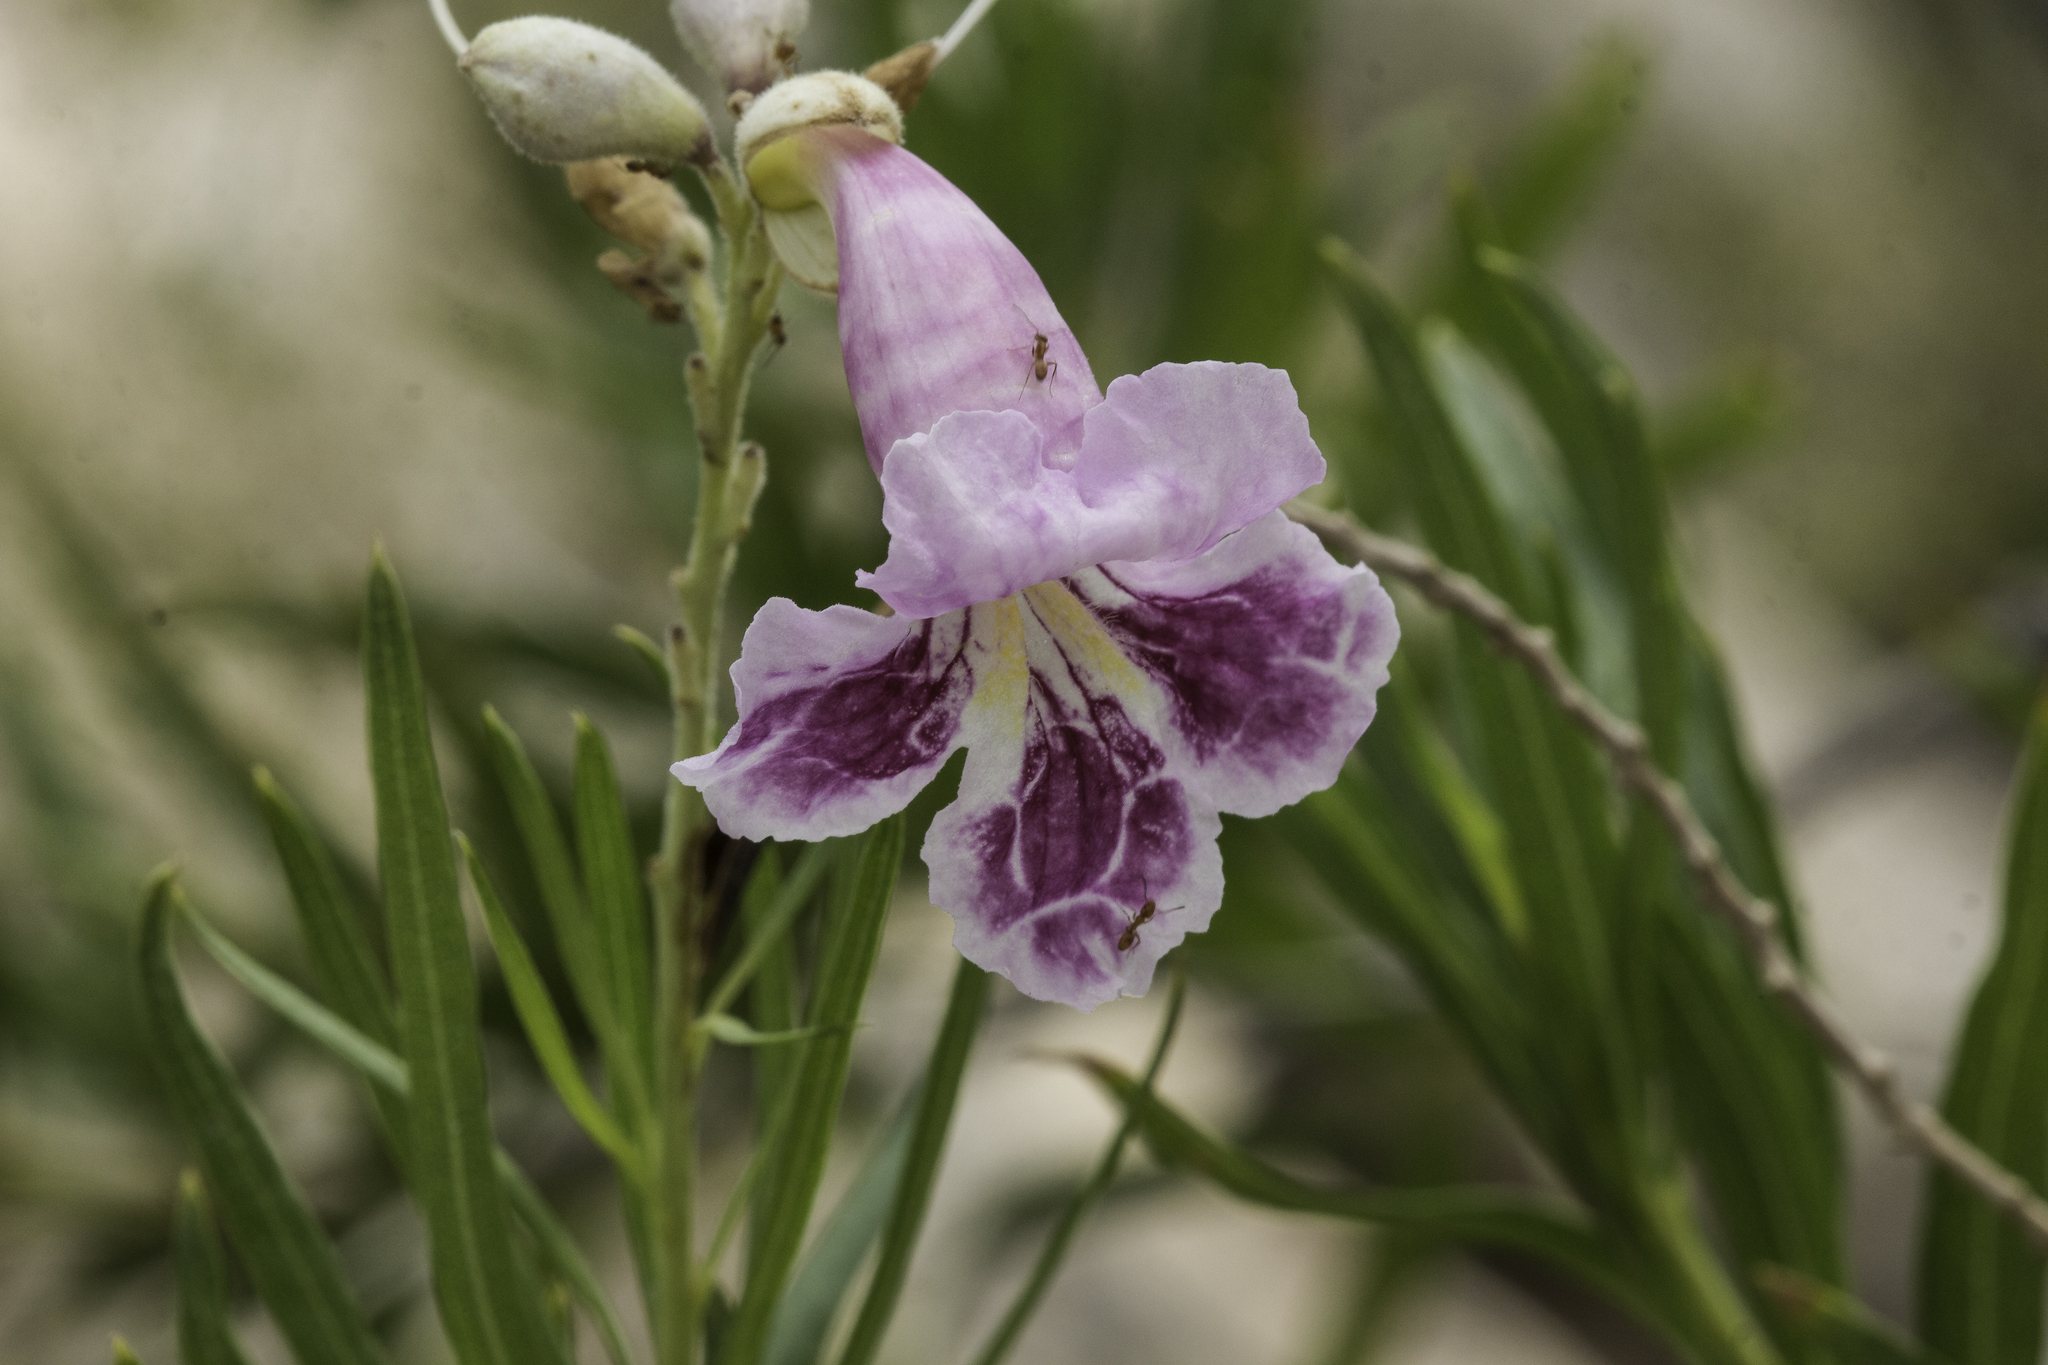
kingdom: Plantae
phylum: Tracheophyta
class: Magnoliopsida
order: Lamiales
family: Bignoniaceae
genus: Chilopsis
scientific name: Chilopsis linearis
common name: Desert-willow
